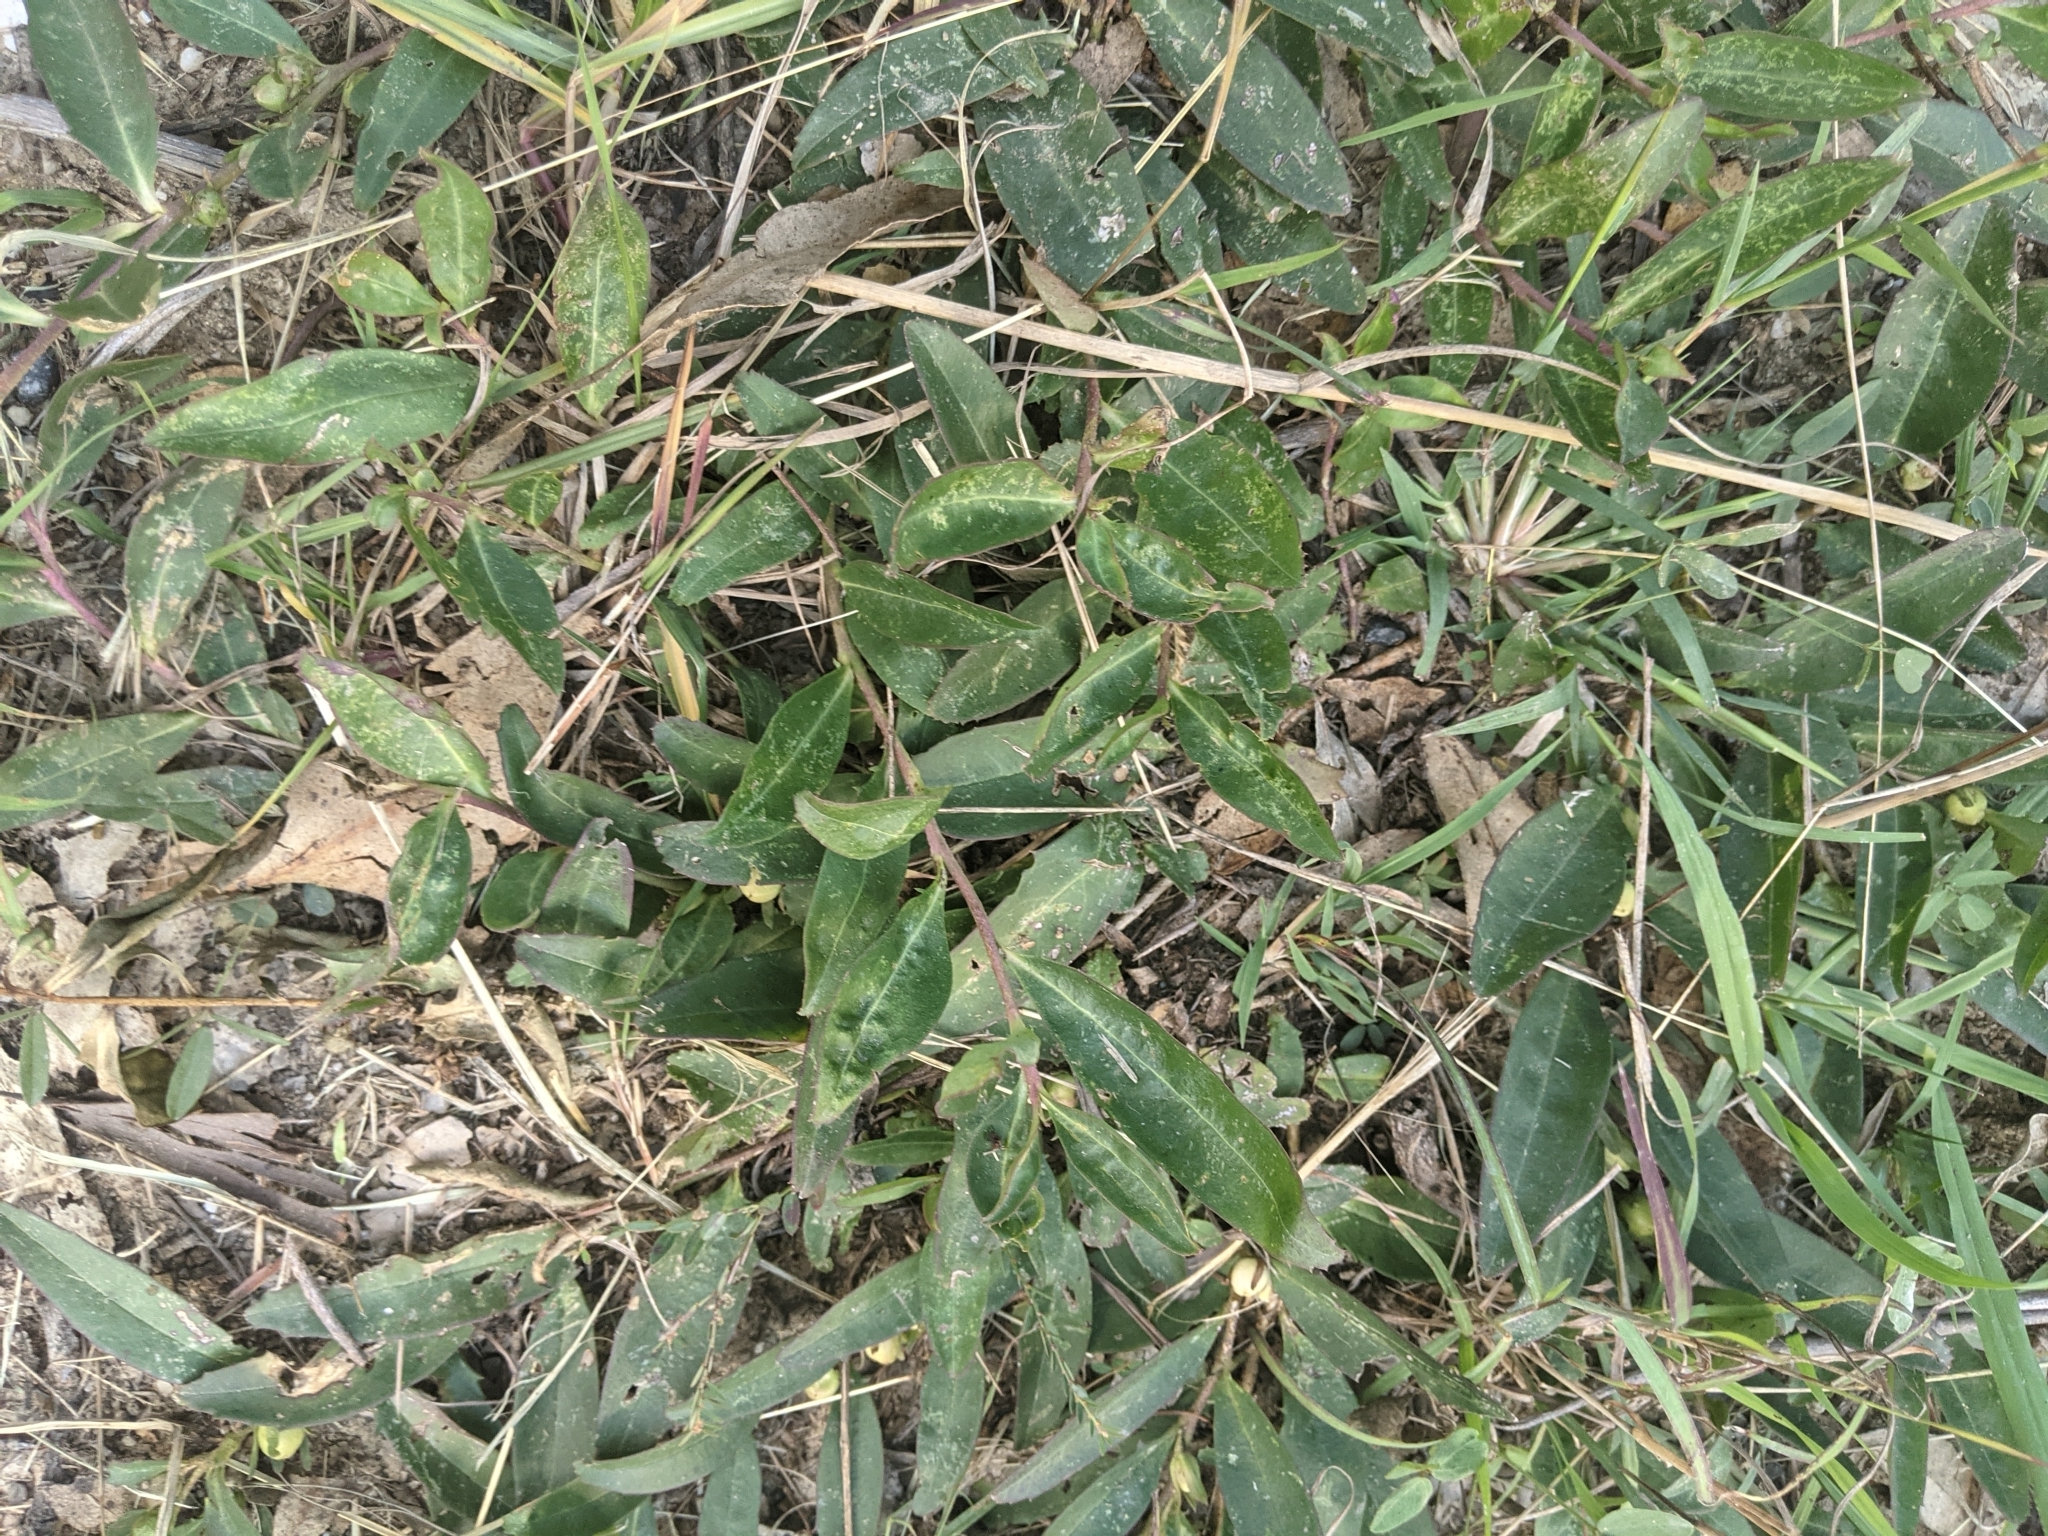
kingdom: Plantae
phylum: Tracheophyta
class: Magnoliopsida
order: Lamiales
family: Scrophulariaceae
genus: Eremophila
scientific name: Eremophila debilis
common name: Winter-apple
